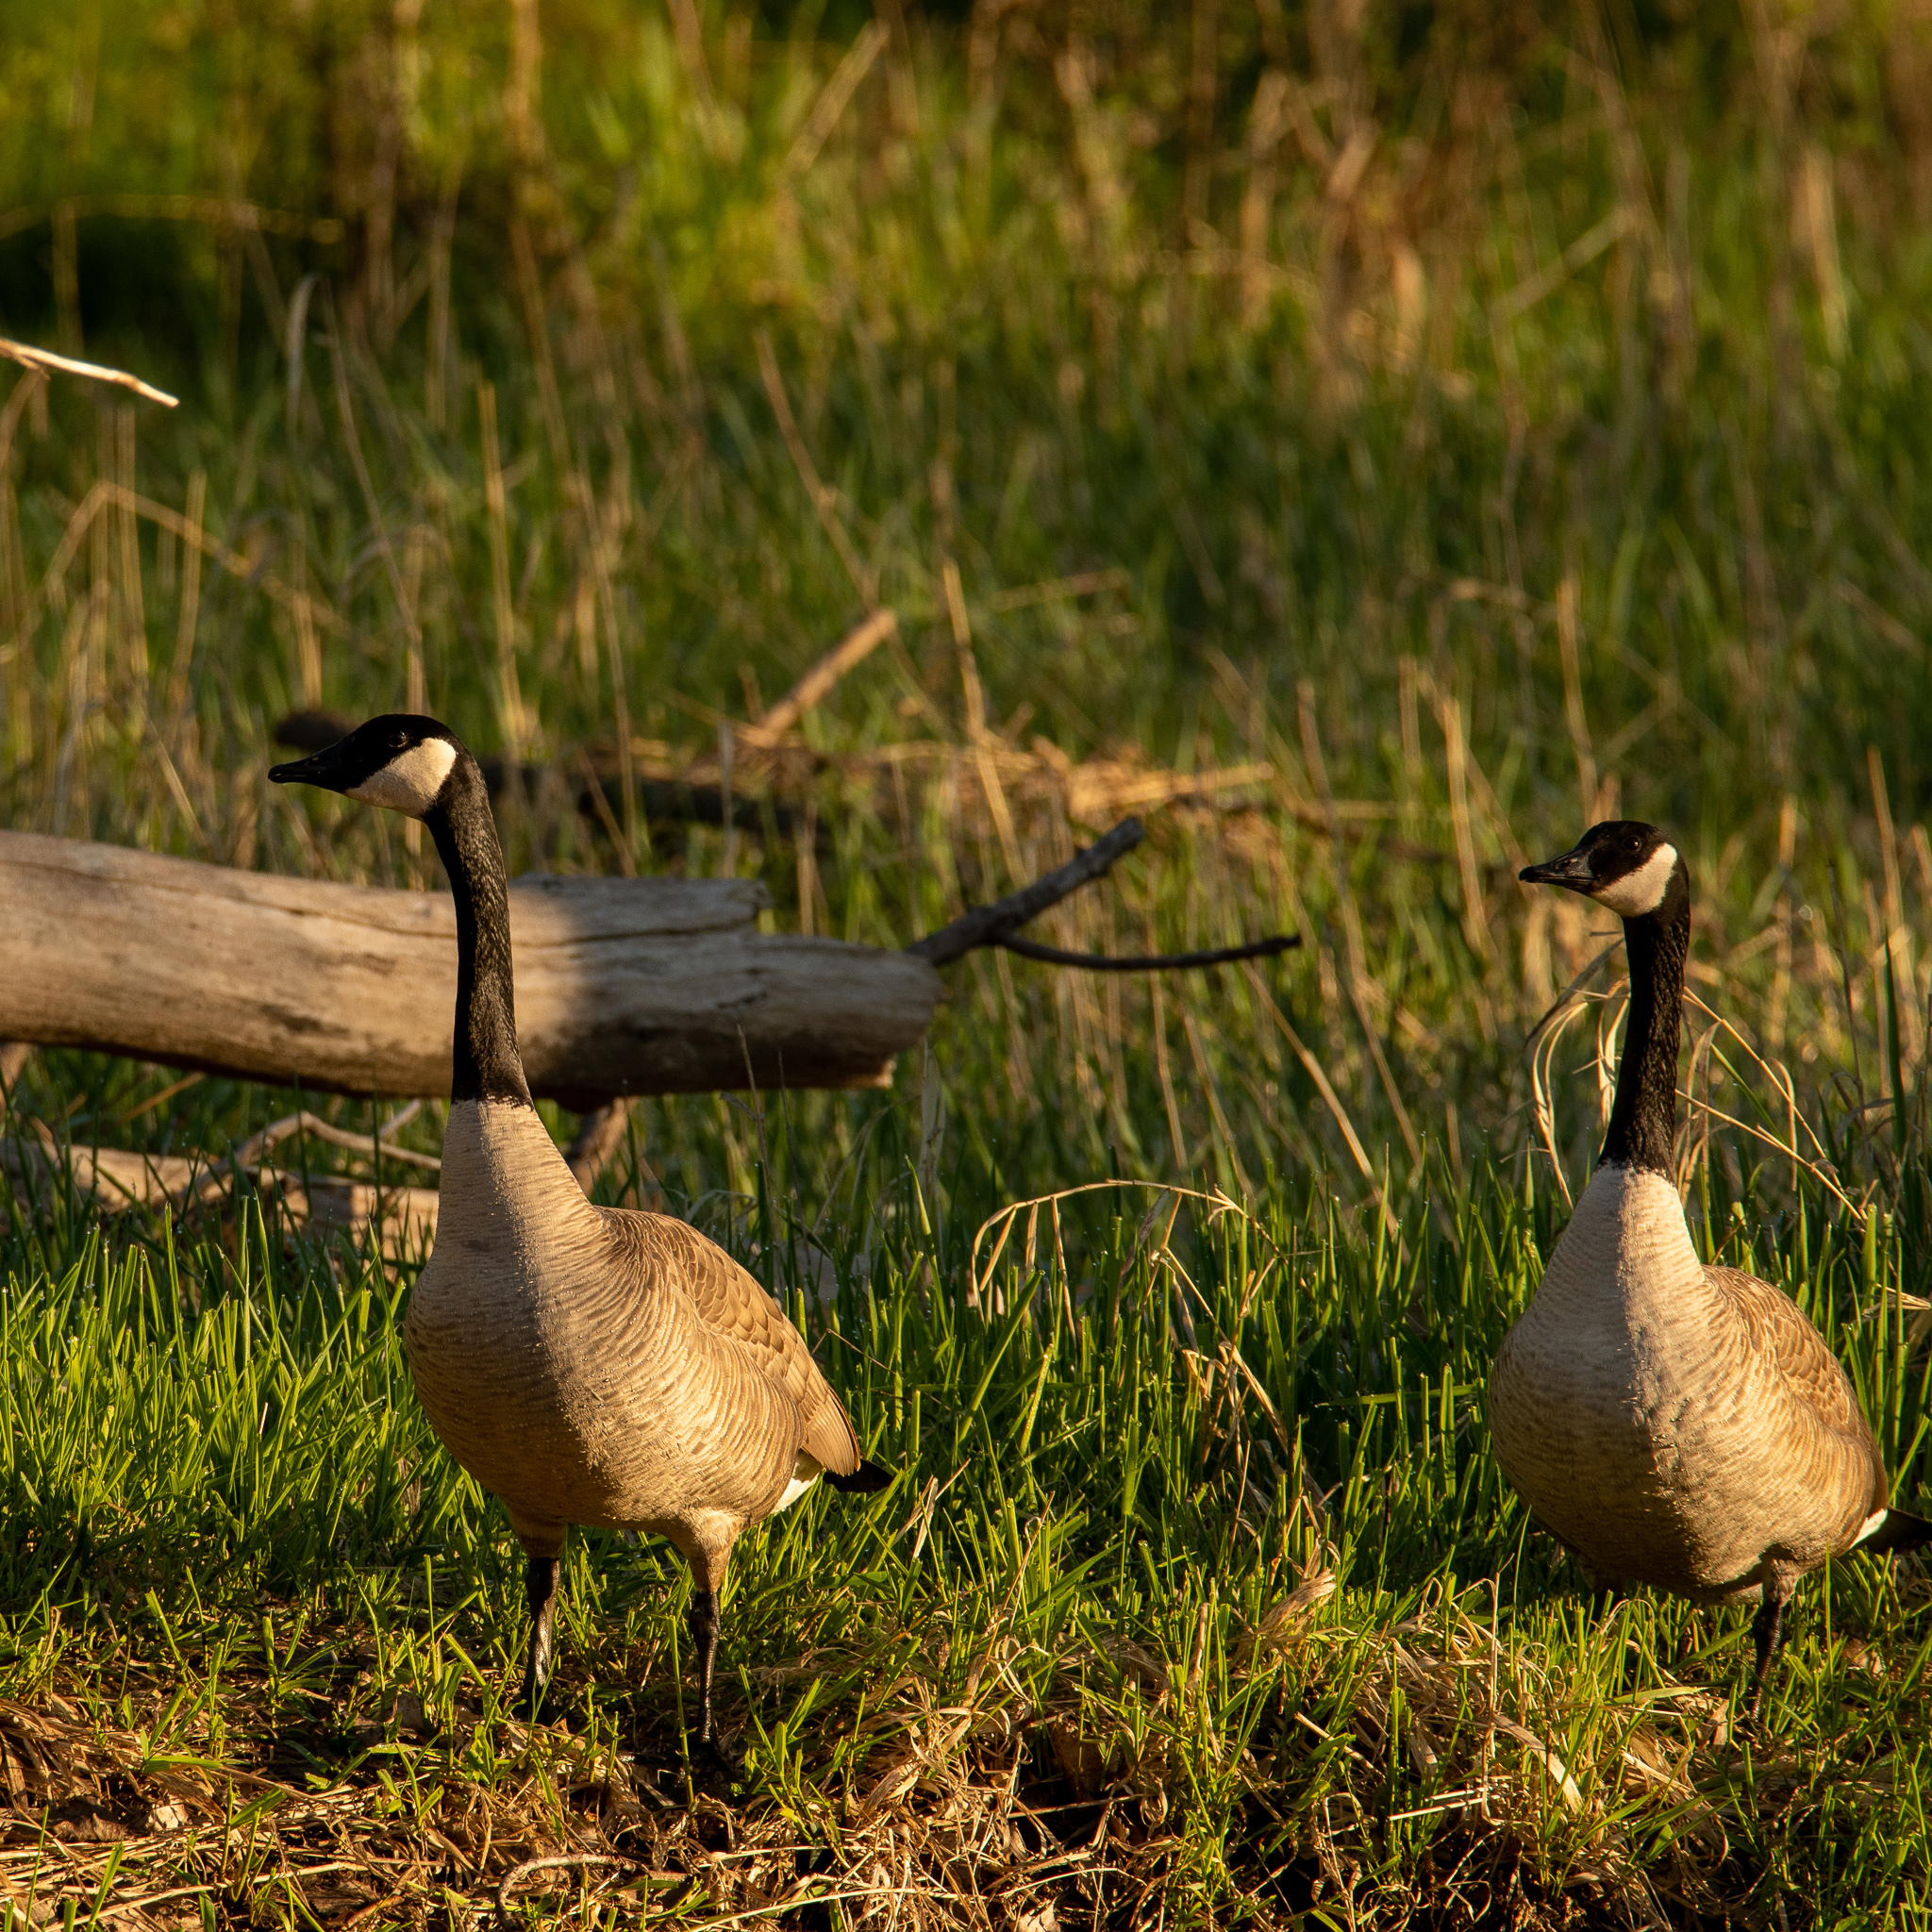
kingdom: Animalia
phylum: Chordata
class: Aves
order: Anseriformes
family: Anatidae
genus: Branta
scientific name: Branta canadensis
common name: Canada goose
